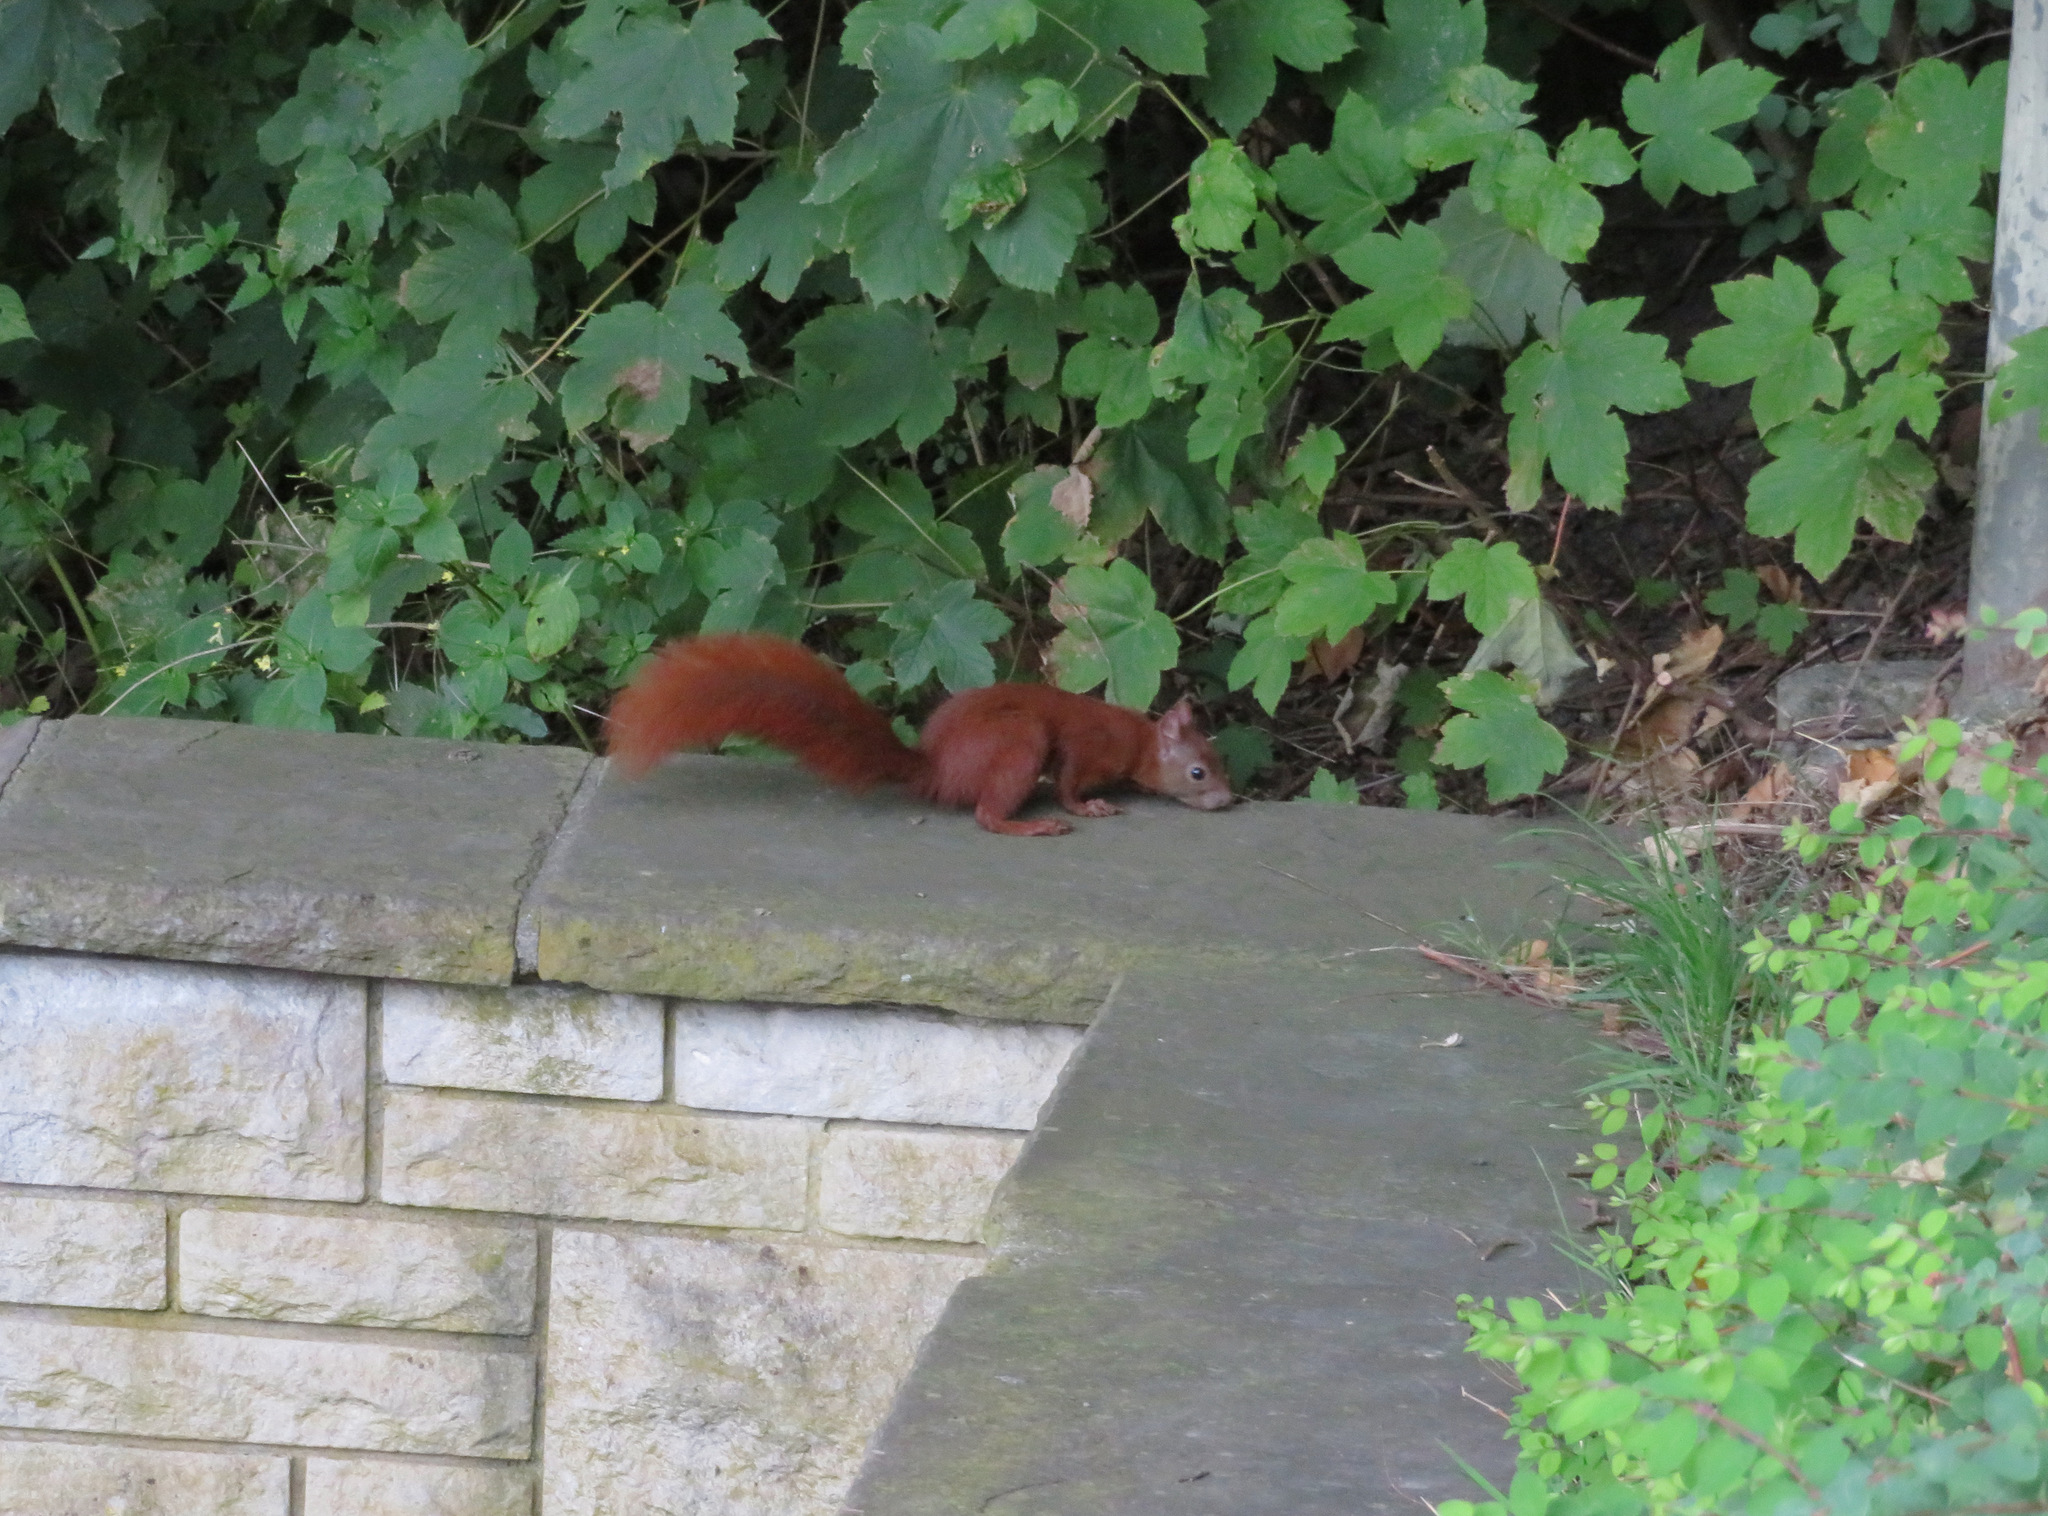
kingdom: Animalia
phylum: Chordata
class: Mammalia
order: Rodentia
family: Sciuridae
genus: Sciurus
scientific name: Sciurus vulgaris
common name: Eurasian red squirrel
